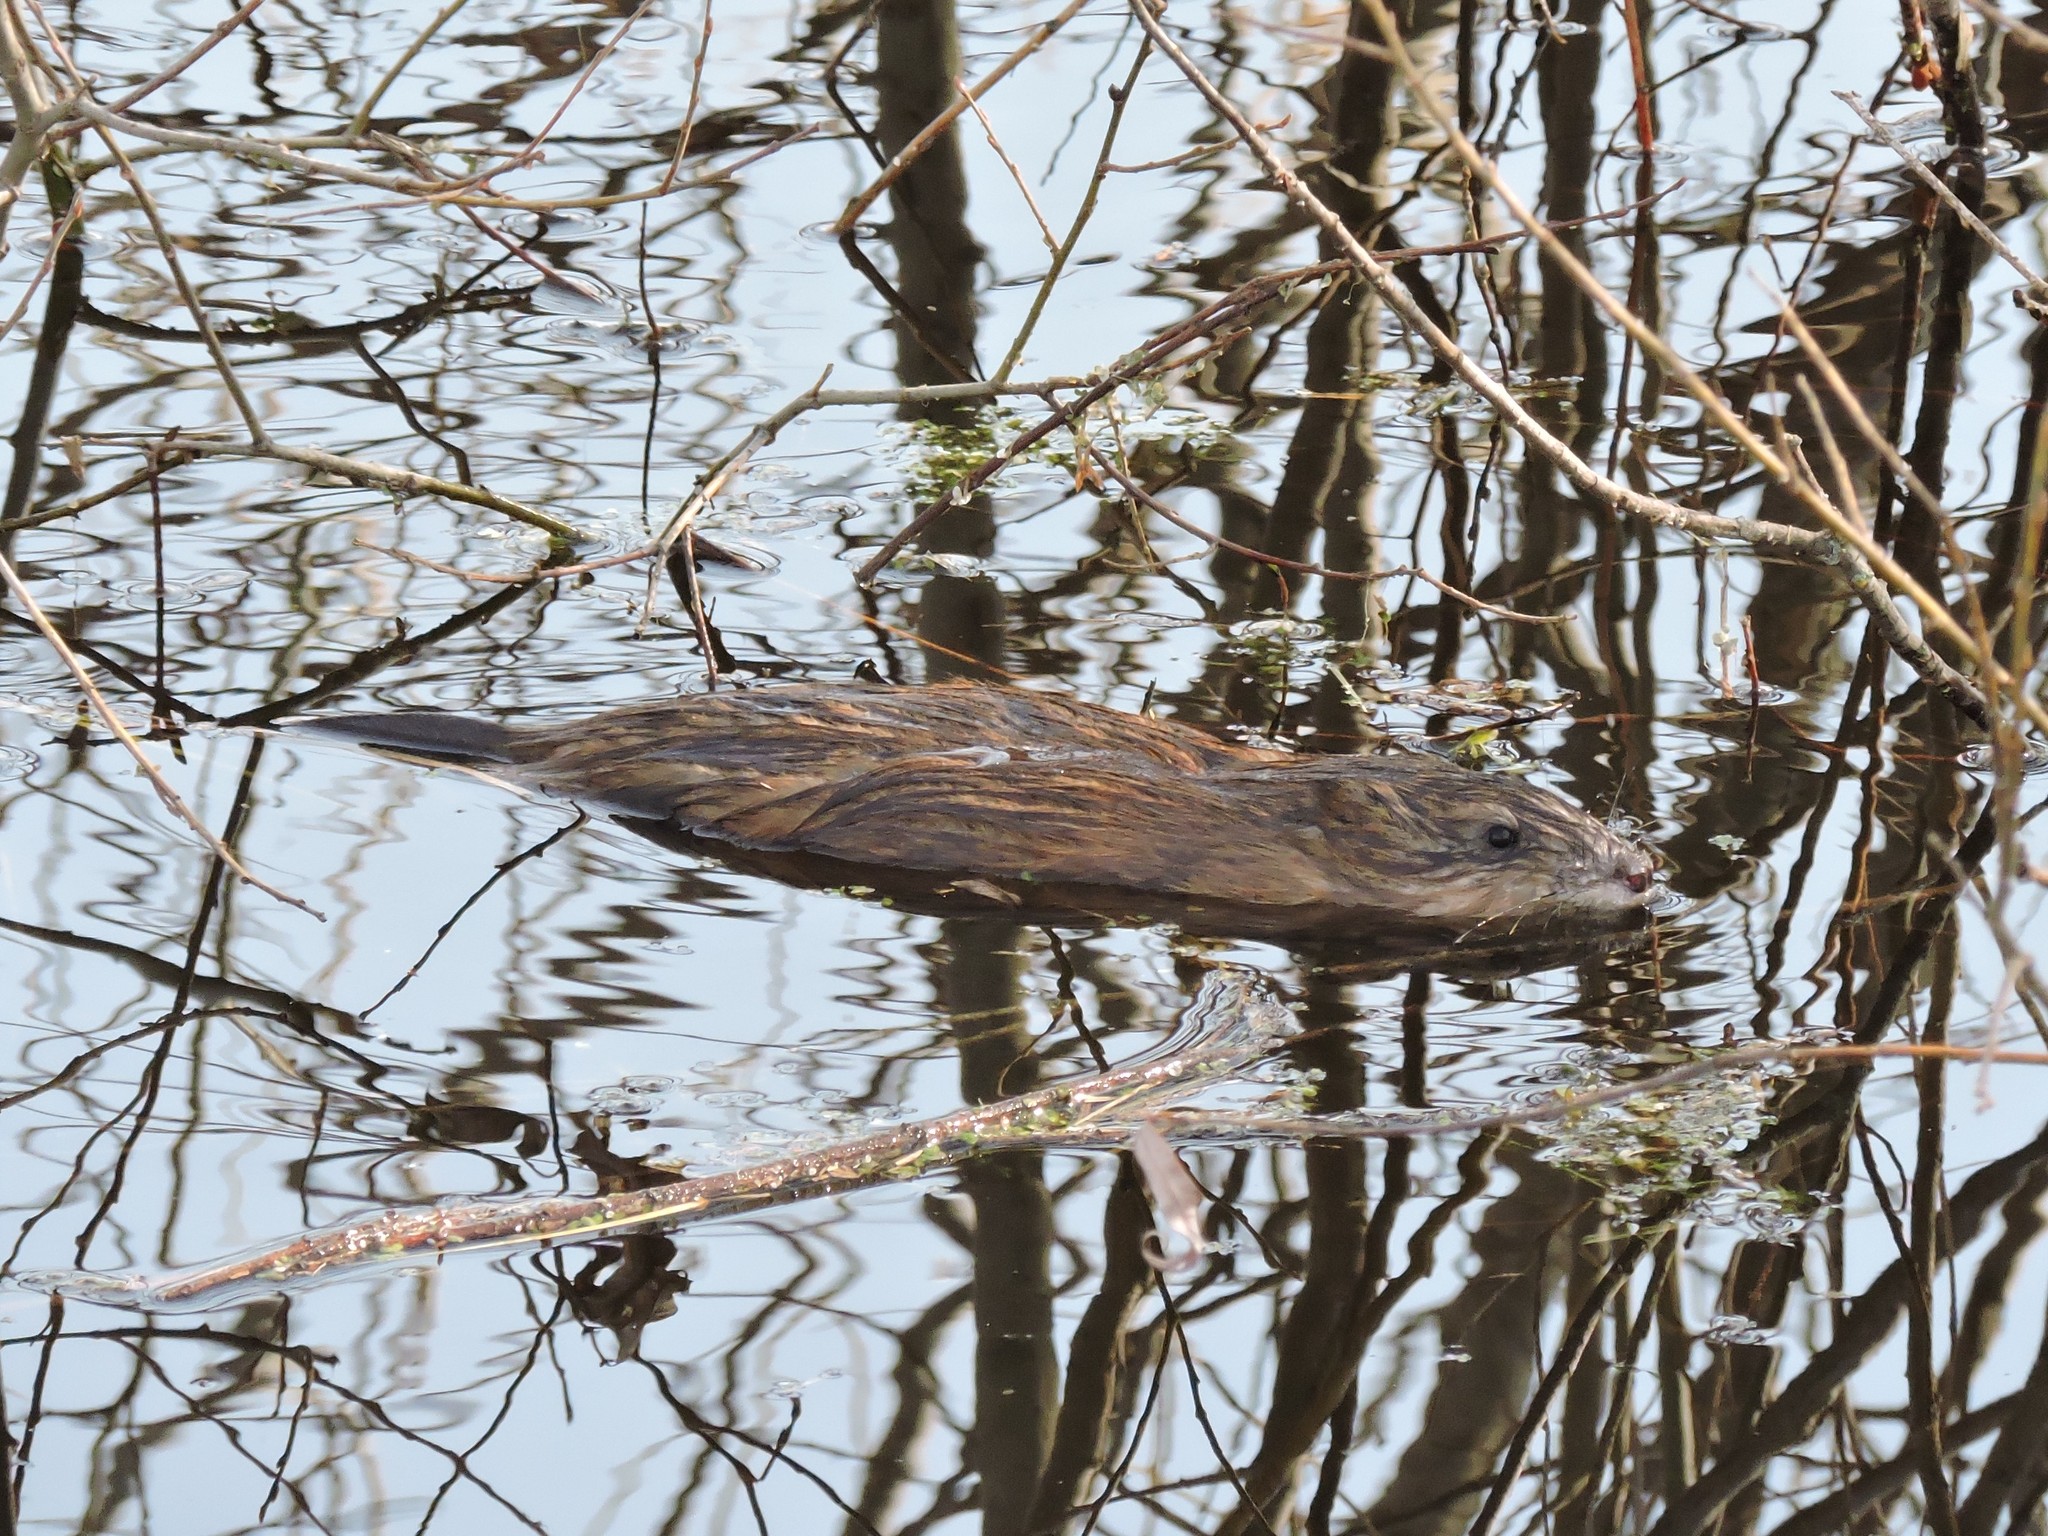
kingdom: Animalia
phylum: Chordata
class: Mammalia
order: Rodentia
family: Cricetidae
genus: Ondatra
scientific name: Ondatra zibethicus
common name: Muskrat
